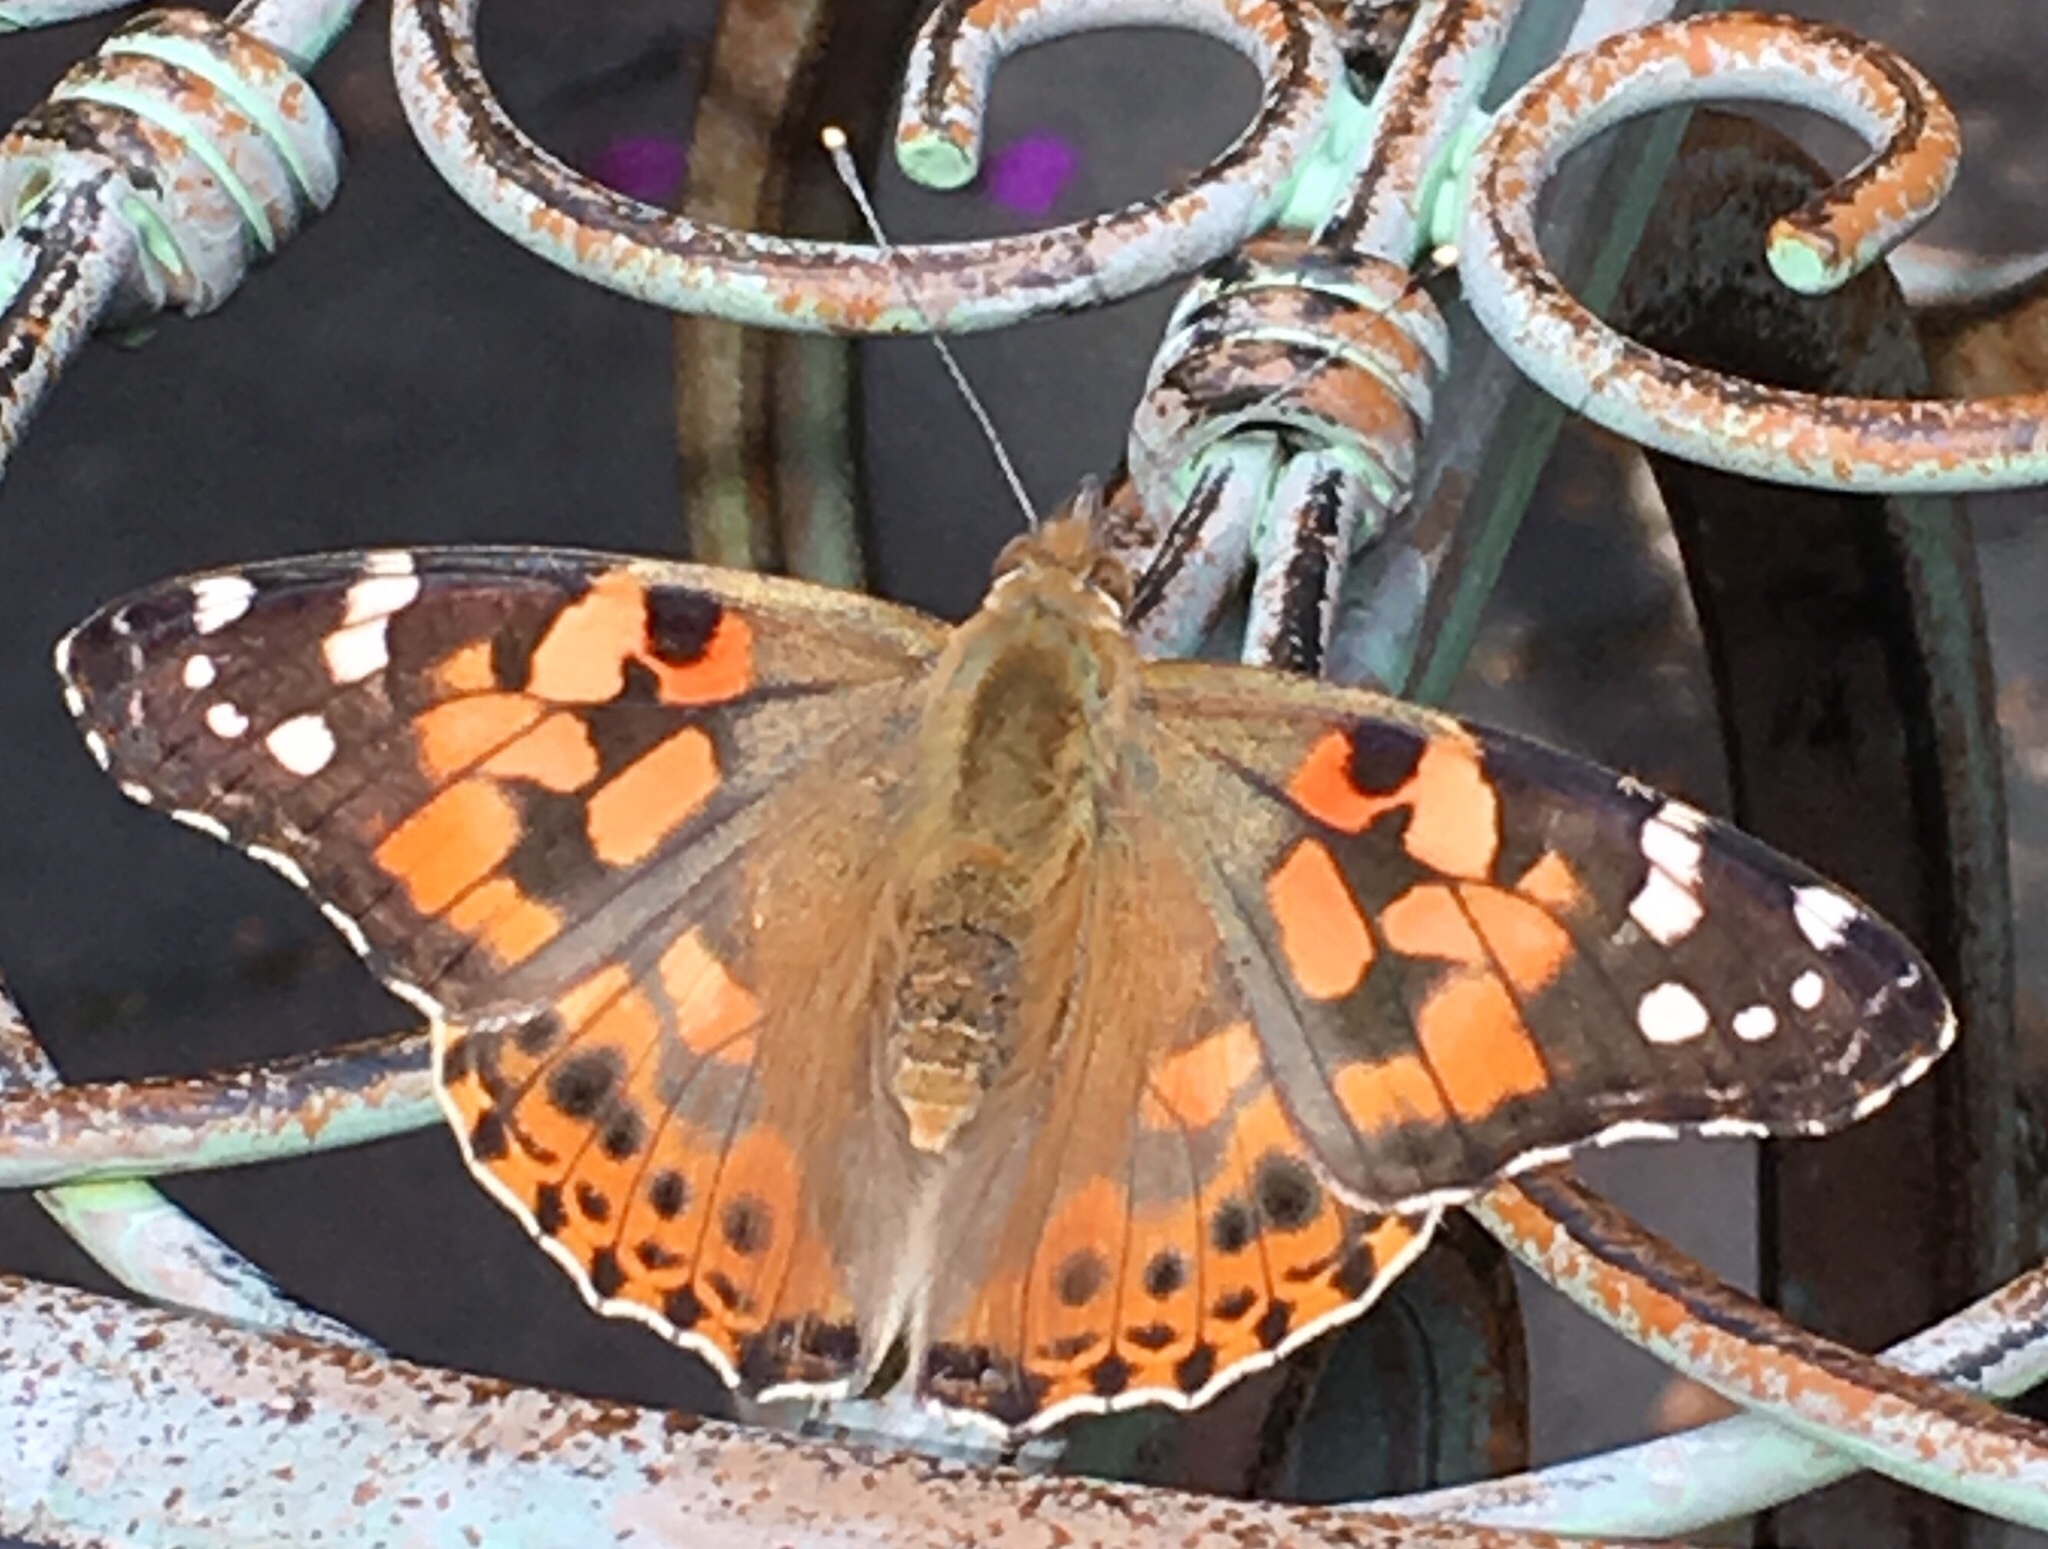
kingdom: Animalia
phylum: Arthropoda
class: Insecta
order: Lepidoptera
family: Nymphalidae
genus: Vanessa
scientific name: Vanessa cardui
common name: Painted lady
